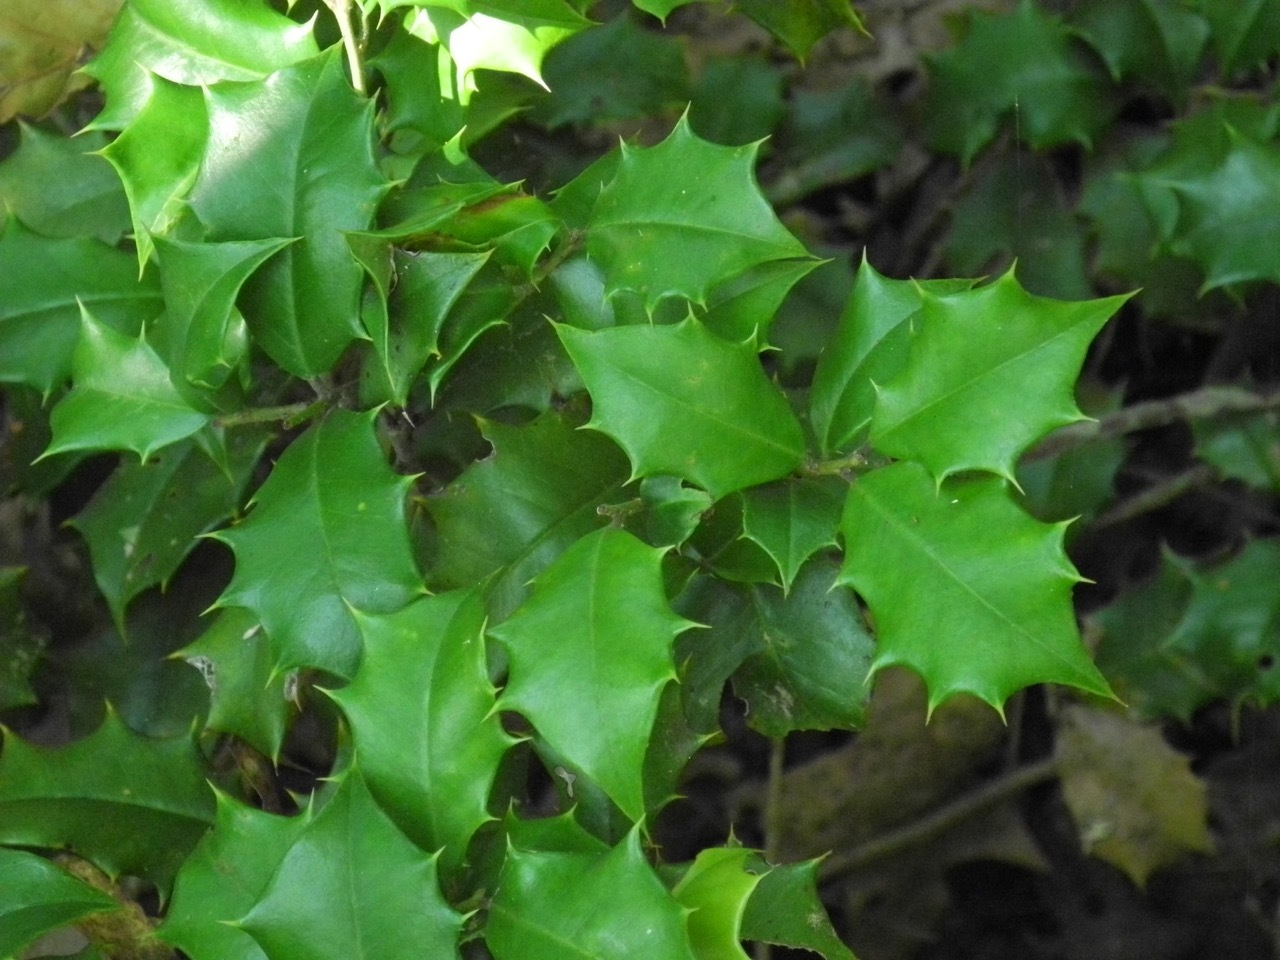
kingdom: Plantae
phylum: Tracheophyta
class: Magnoliopsida
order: Aquifoliales
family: Aquifoliaceae
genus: Ilex
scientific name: Ilex opaca
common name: American holly
